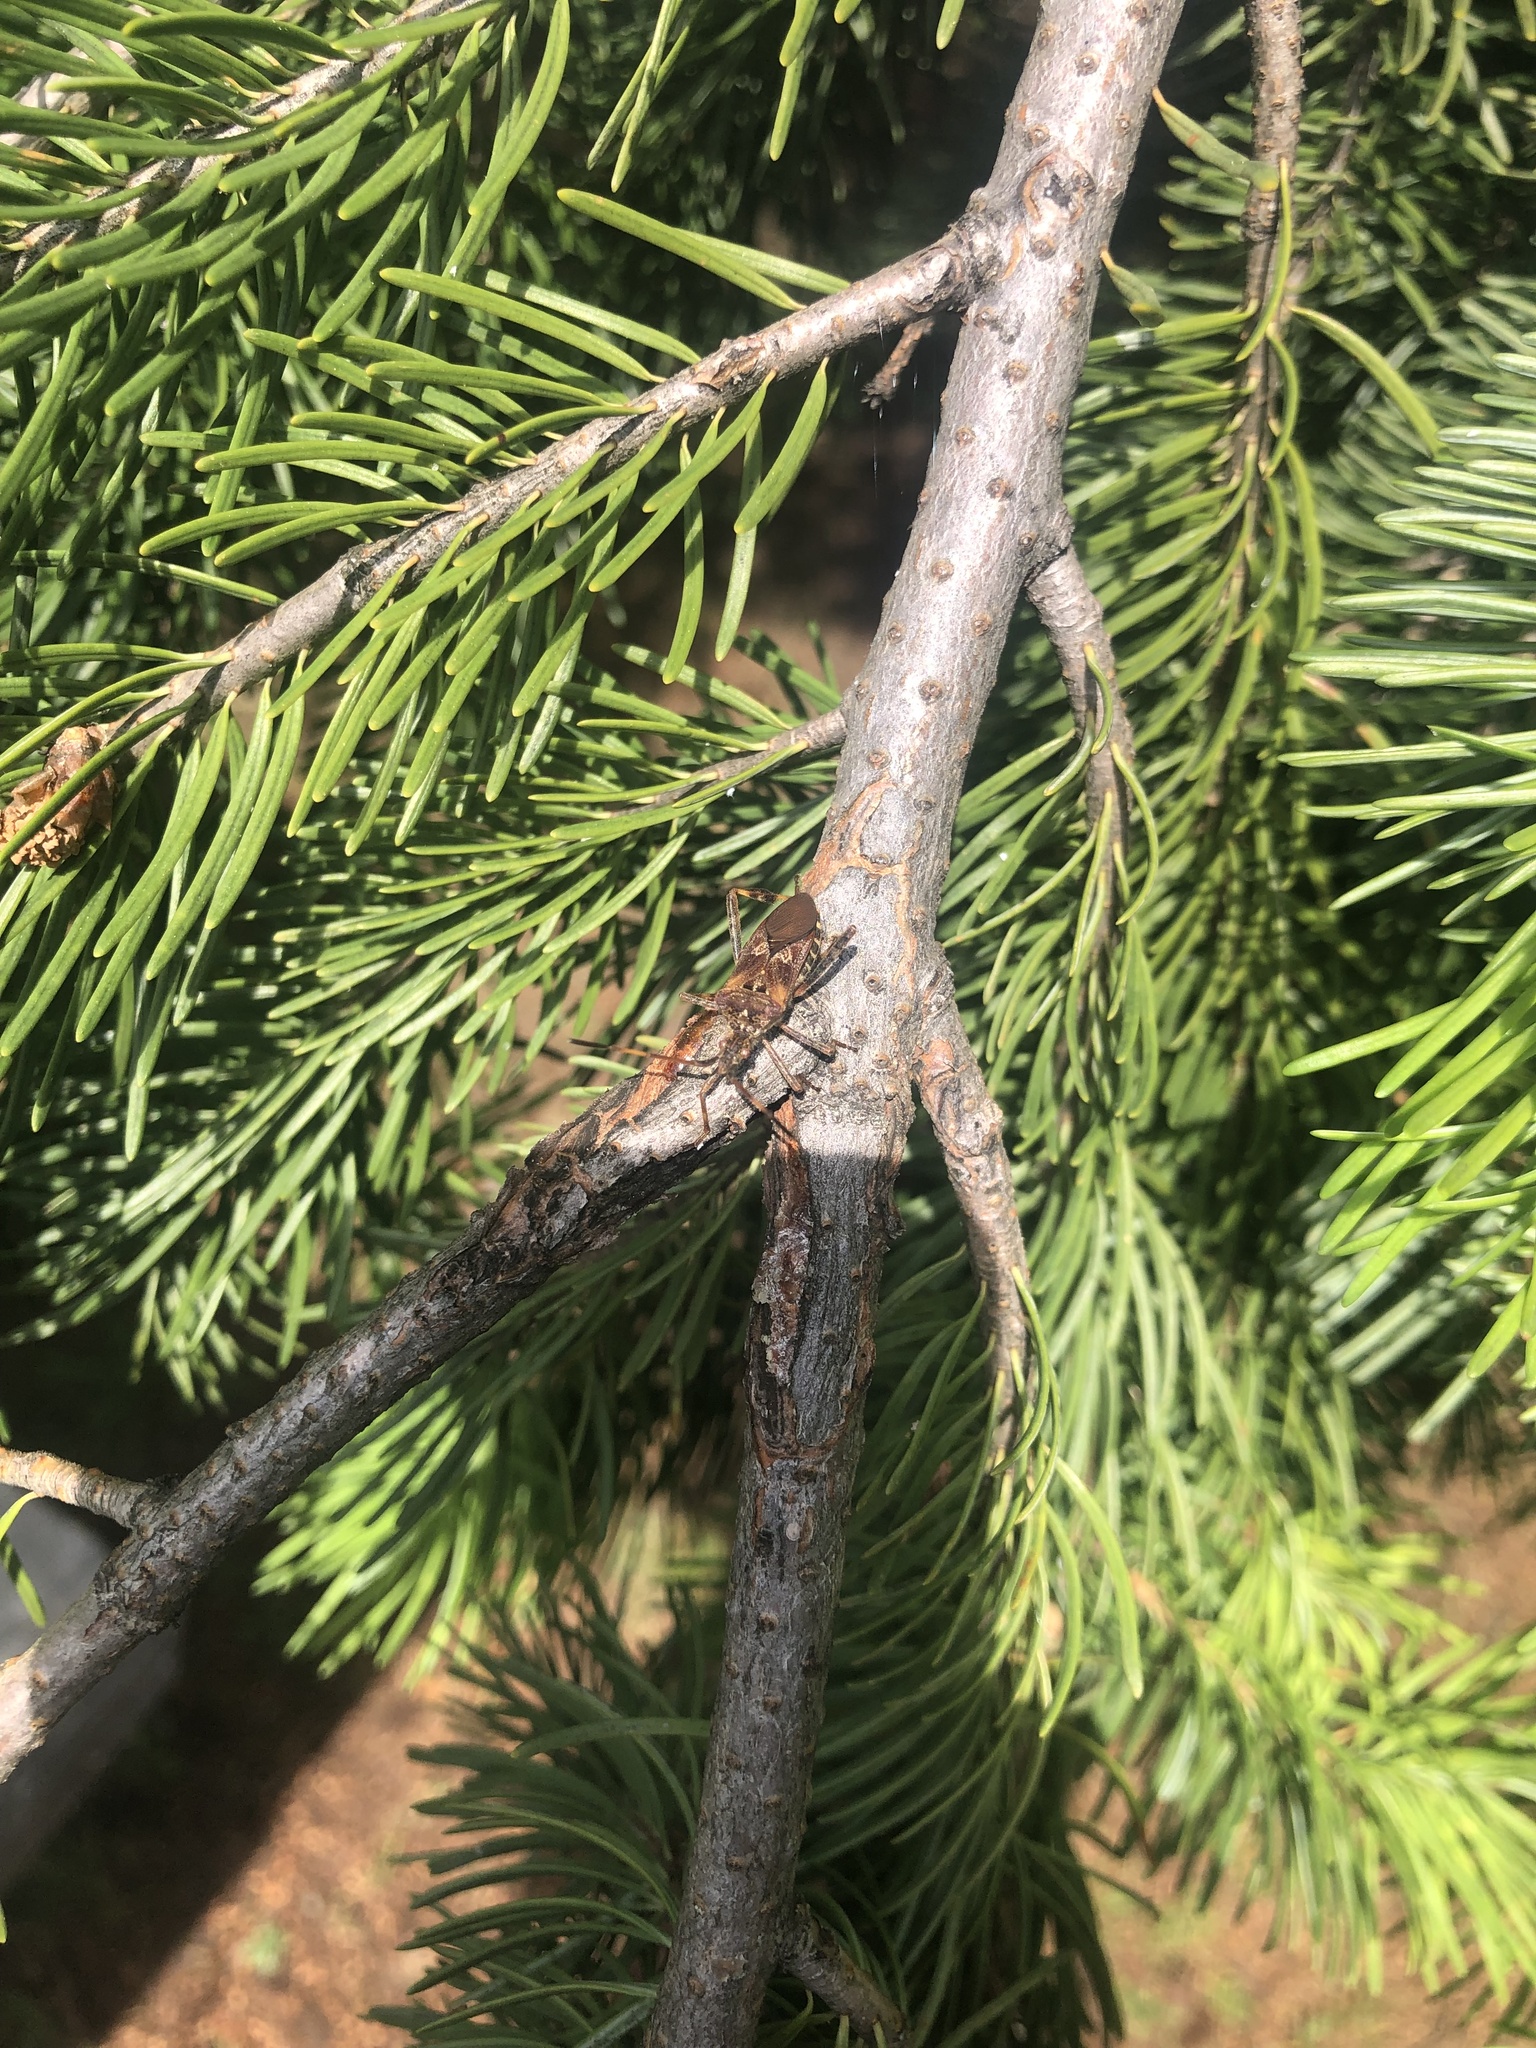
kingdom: Animalia
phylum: Arthropoda
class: Insecta
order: Hemiptera
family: Coreidae
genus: Leptoglossus
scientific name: Leptoglossus occidentalis
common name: Western conifer-seed bug
